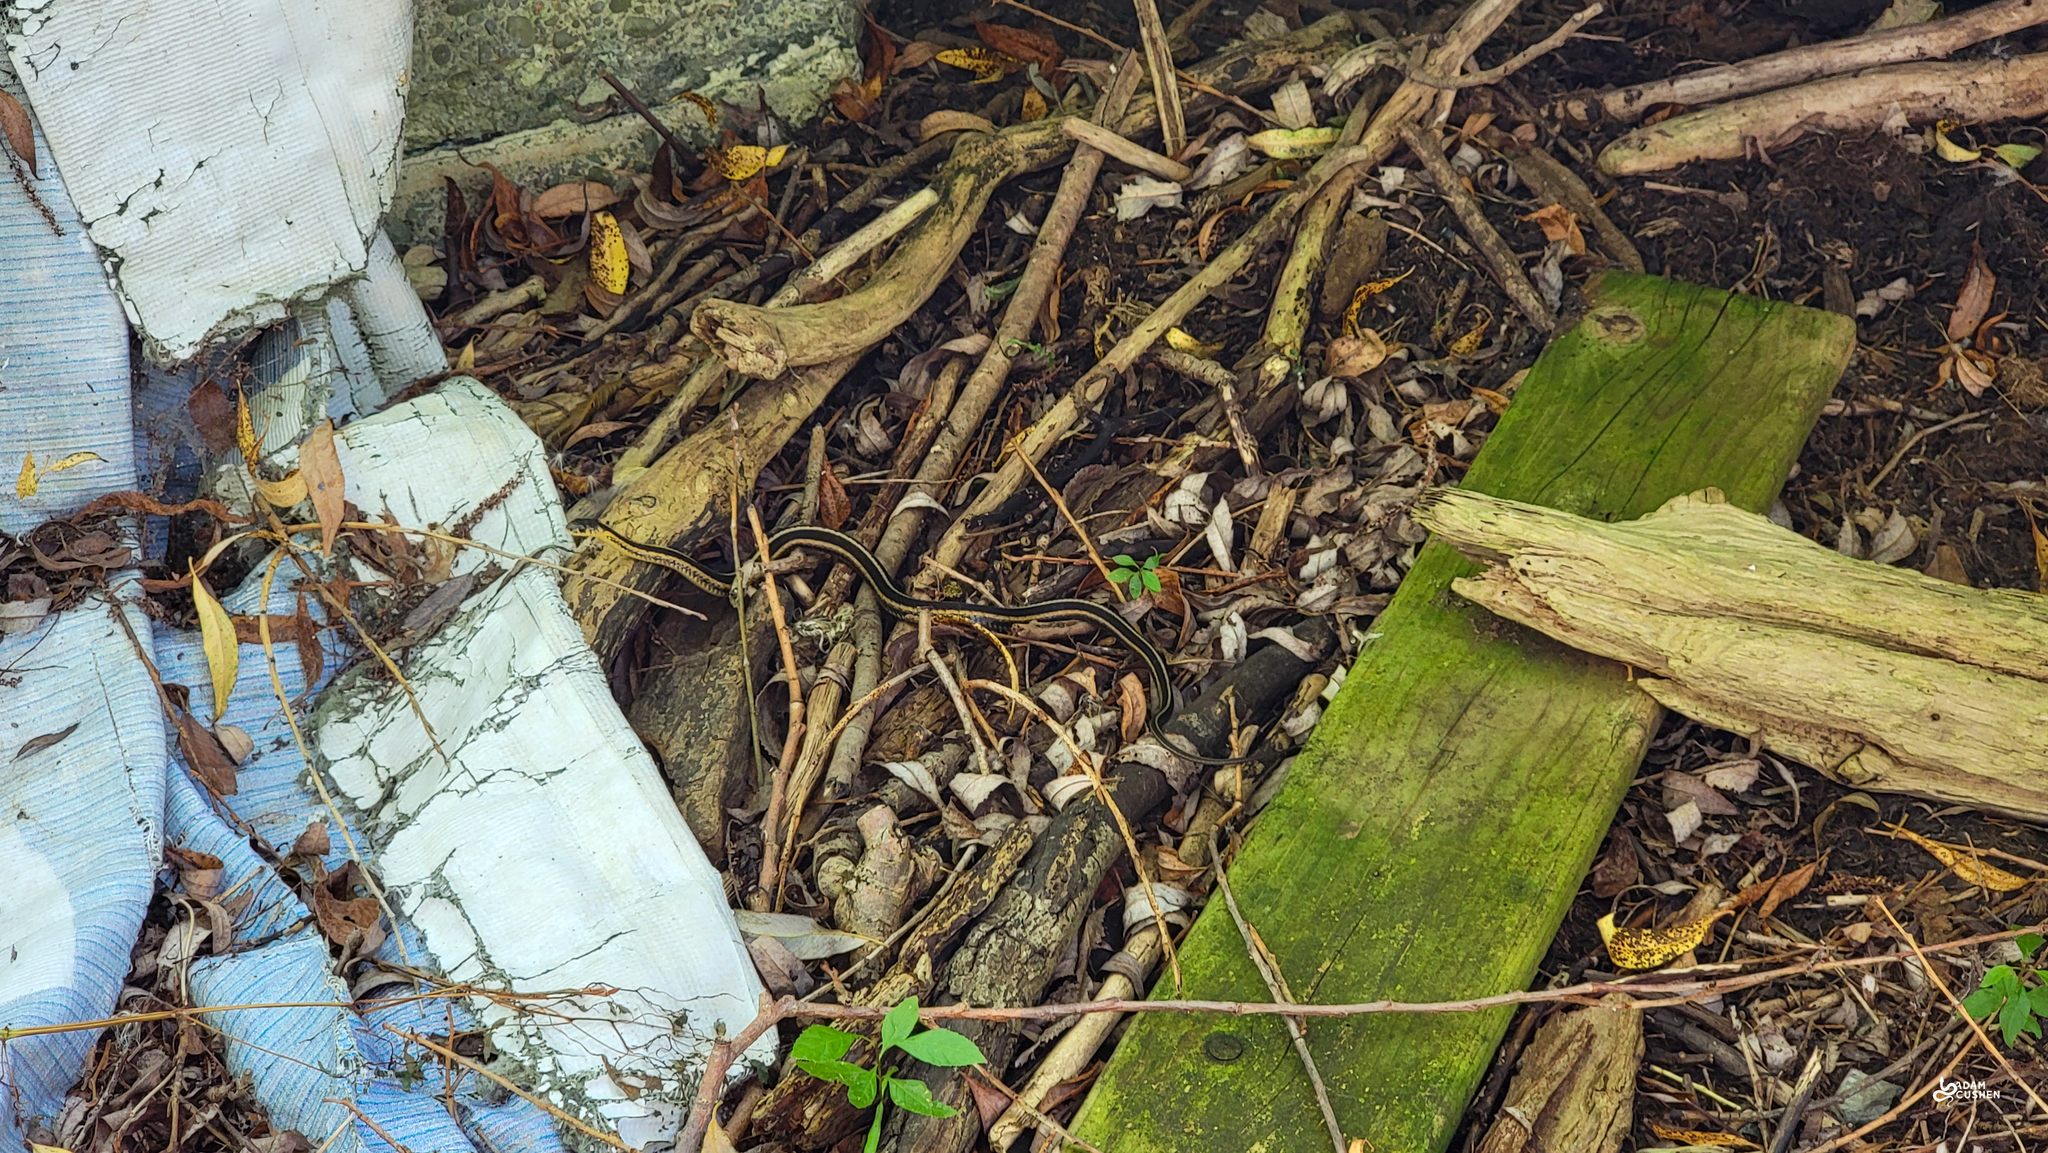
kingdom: Animalia
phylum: Chordata
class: Squamata
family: Colubridae
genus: Thamnophis
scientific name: Thamnophis sirtalis
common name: Common garter snake
